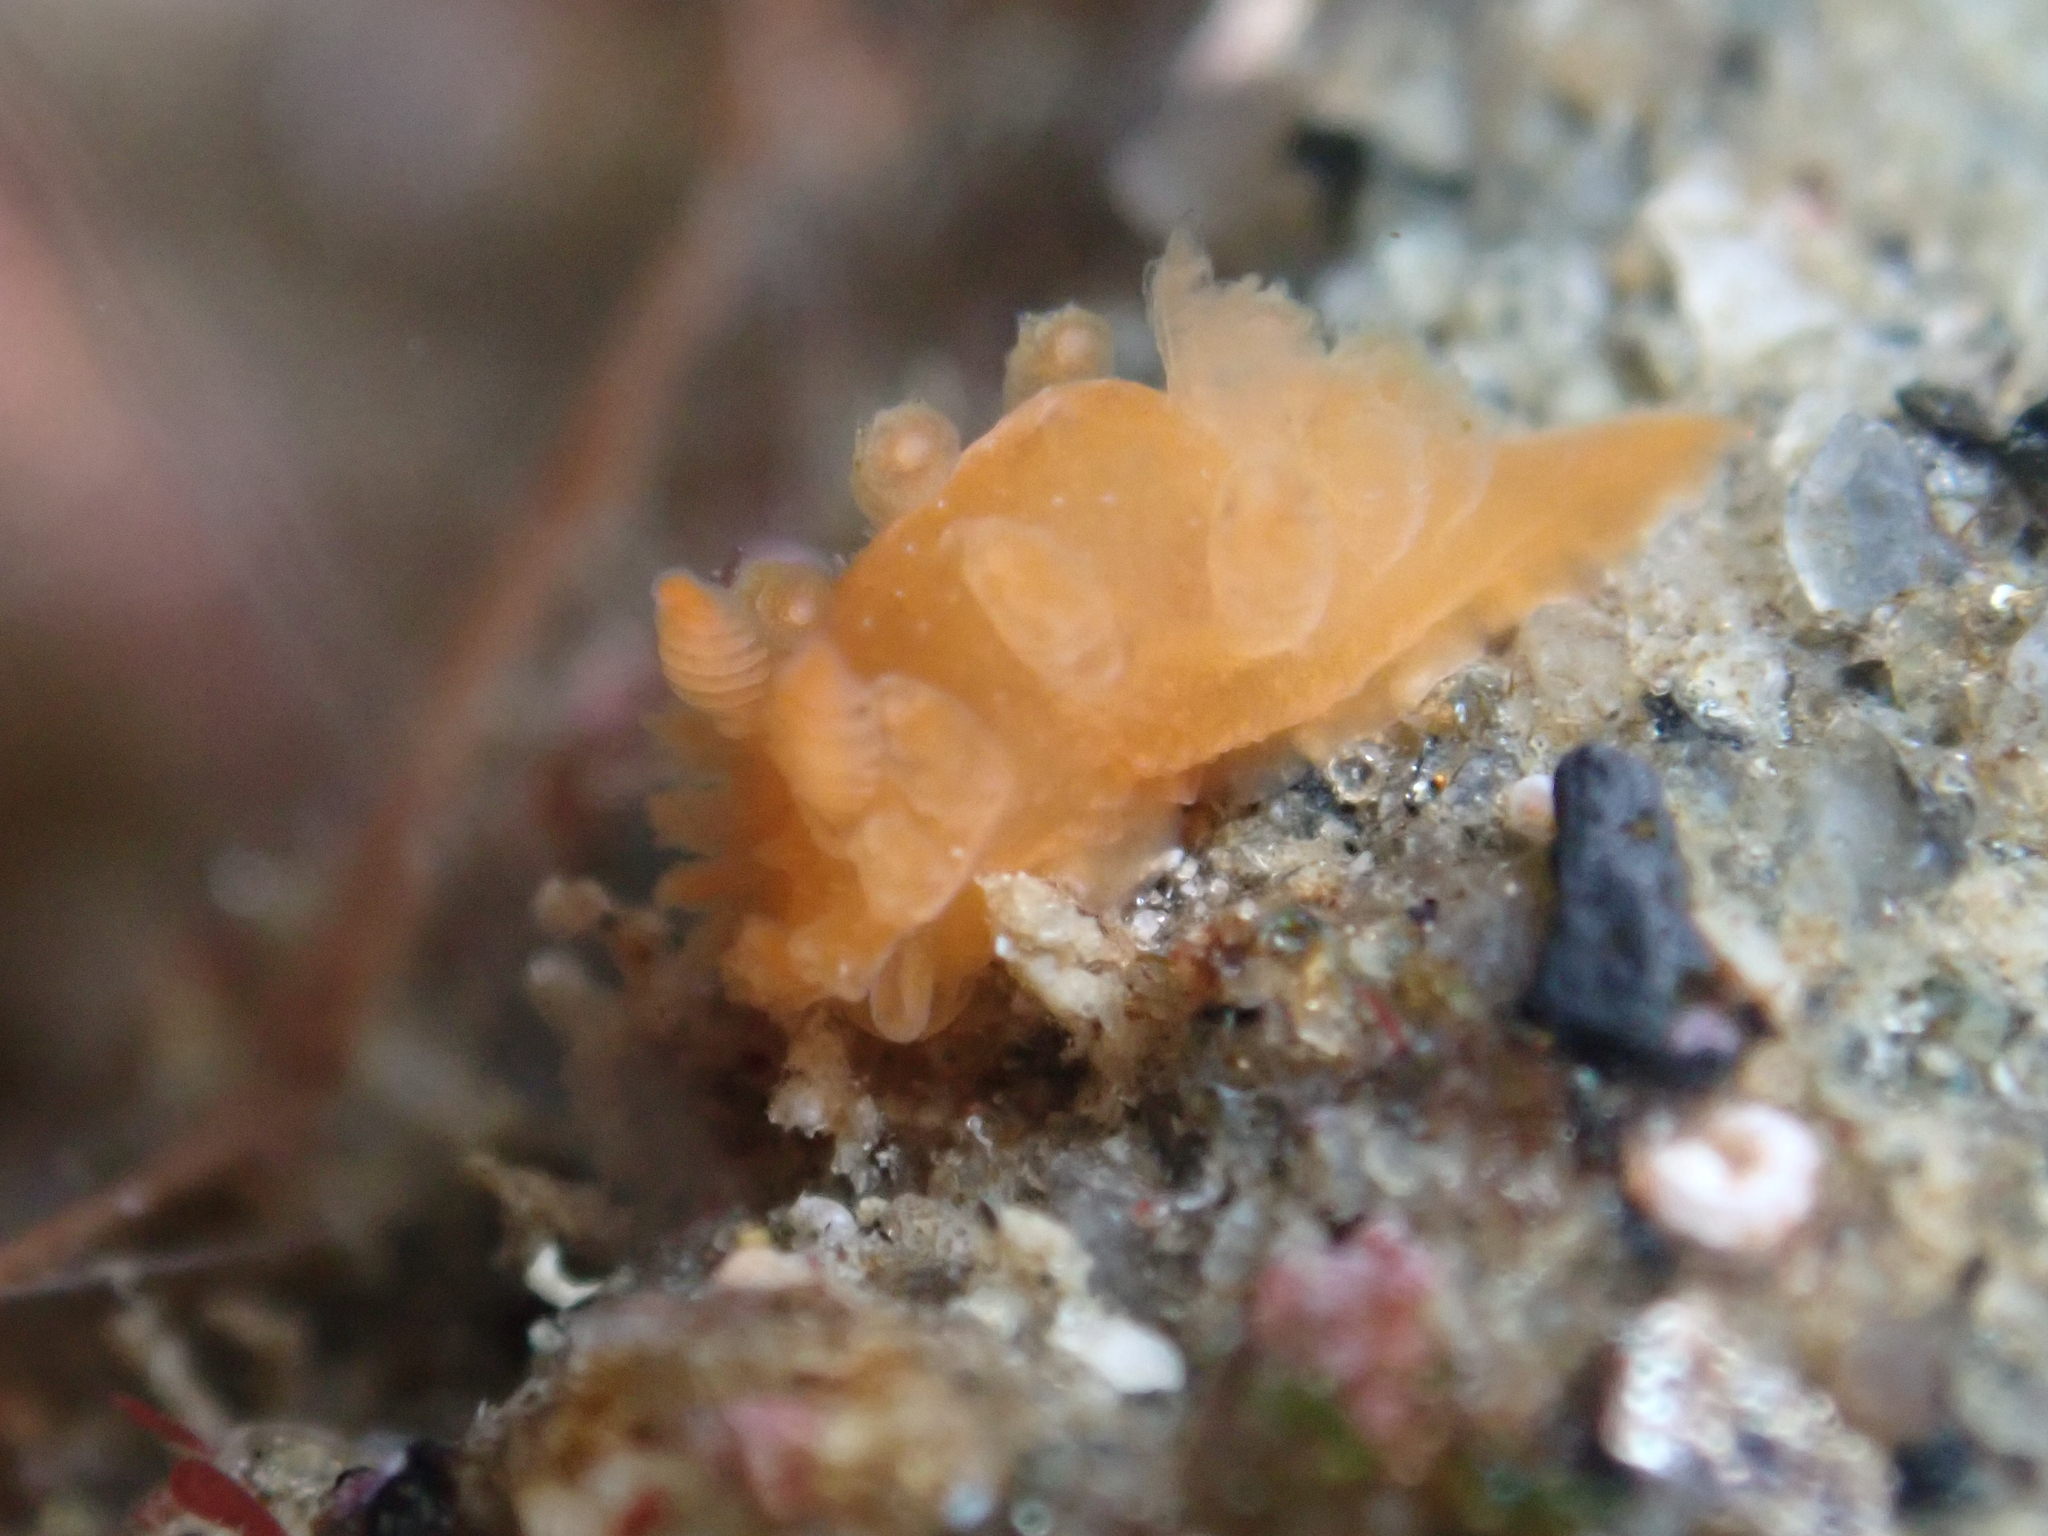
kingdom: Animalia
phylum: Mollusca
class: Gastropoda
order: Nudibranchia
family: Polyceridae
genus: Triopha
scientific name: Triopha maculata
